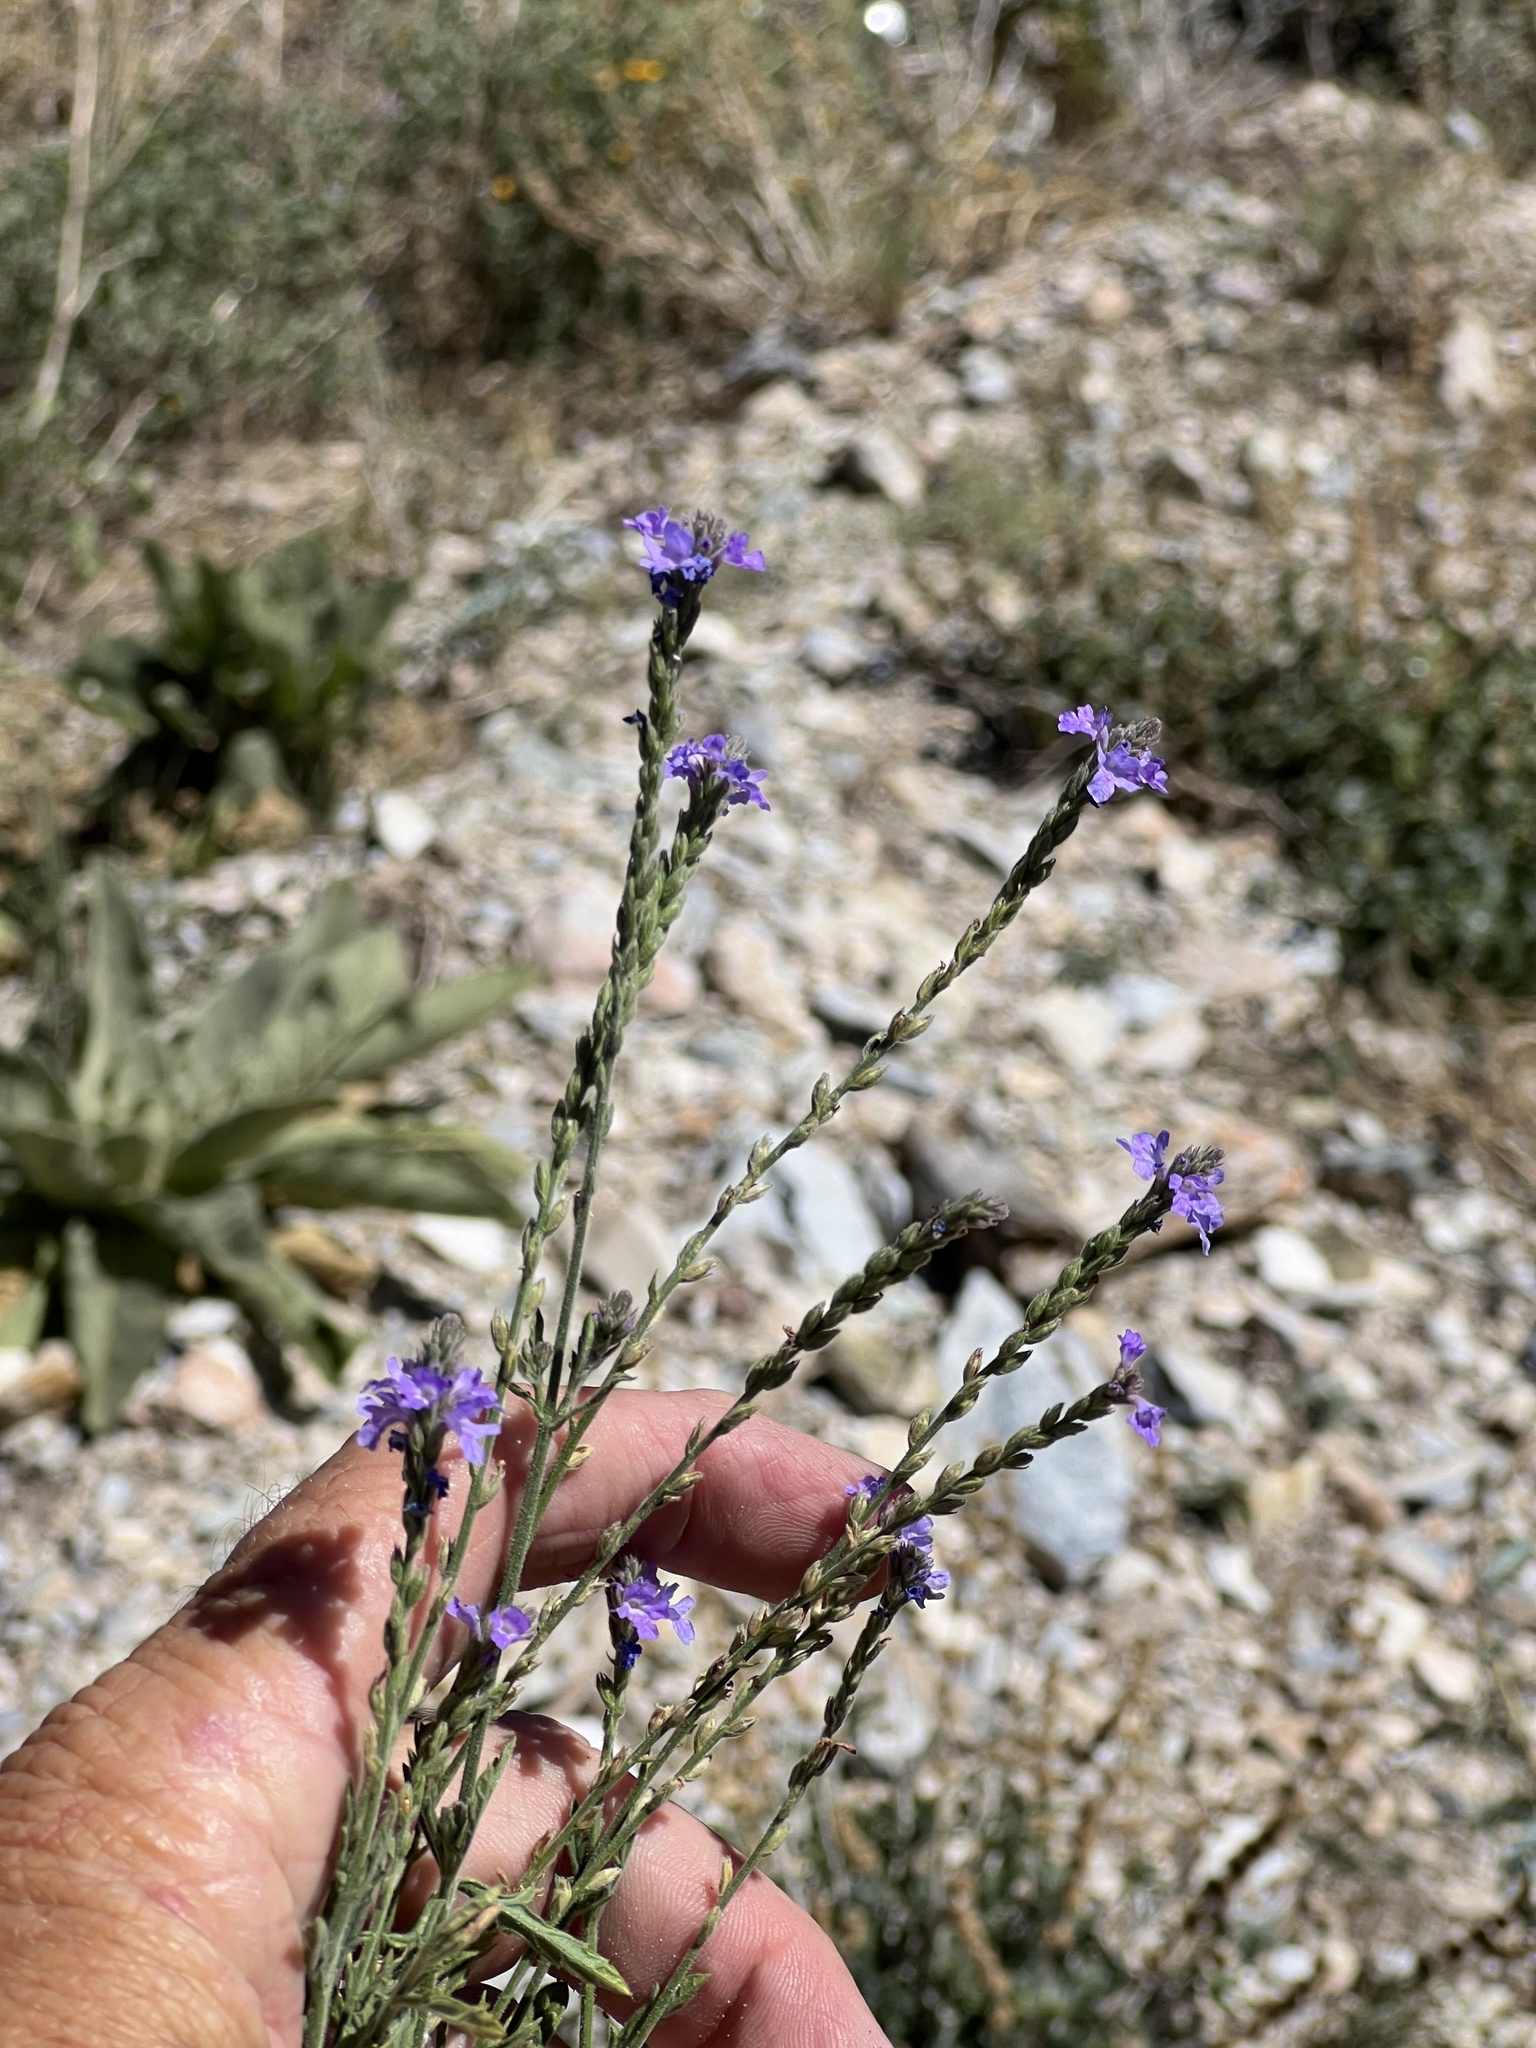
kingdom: Plantae
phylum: Tracheophyta
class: Magnoliopsida
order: Lamiales
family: Verbenaceae
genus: Verbena
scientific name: Verbena neomexicana
